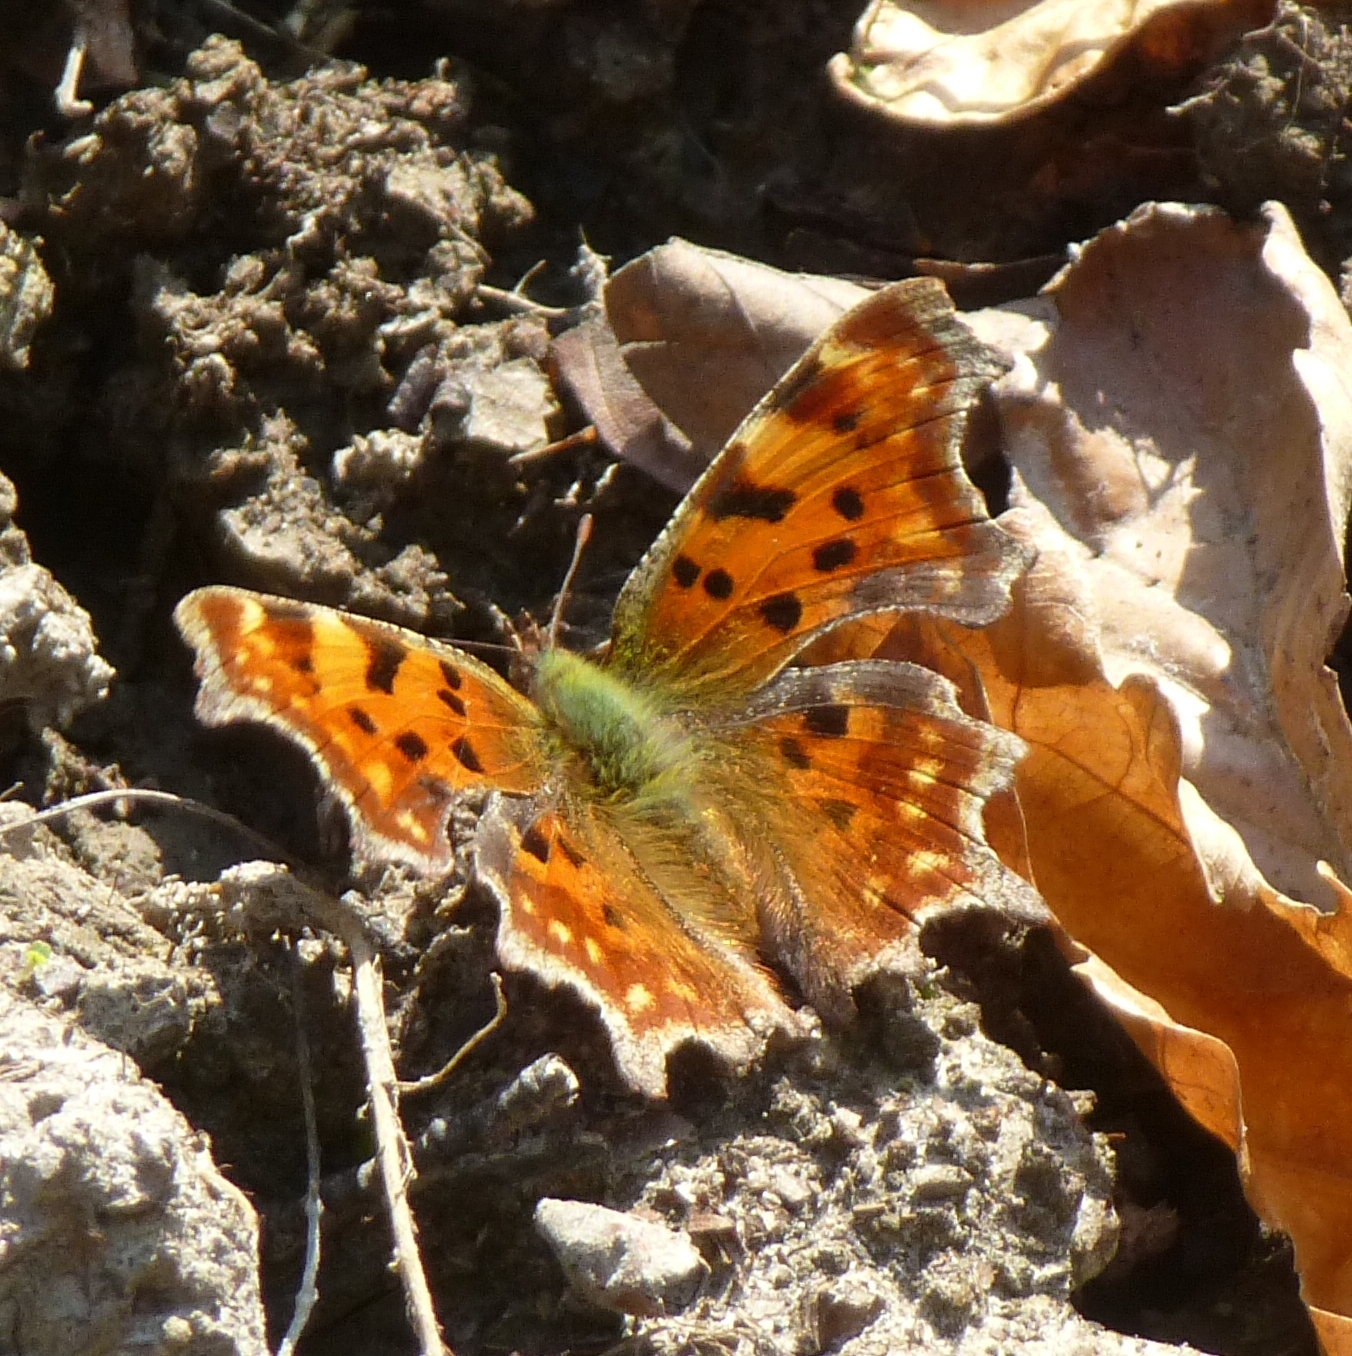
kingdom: Animalia
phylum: Arthropoda
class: Insecta
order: Lepidoptera
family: Nymphalidae
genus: Polygonia
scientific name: Polygonia c-album
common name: Comma
